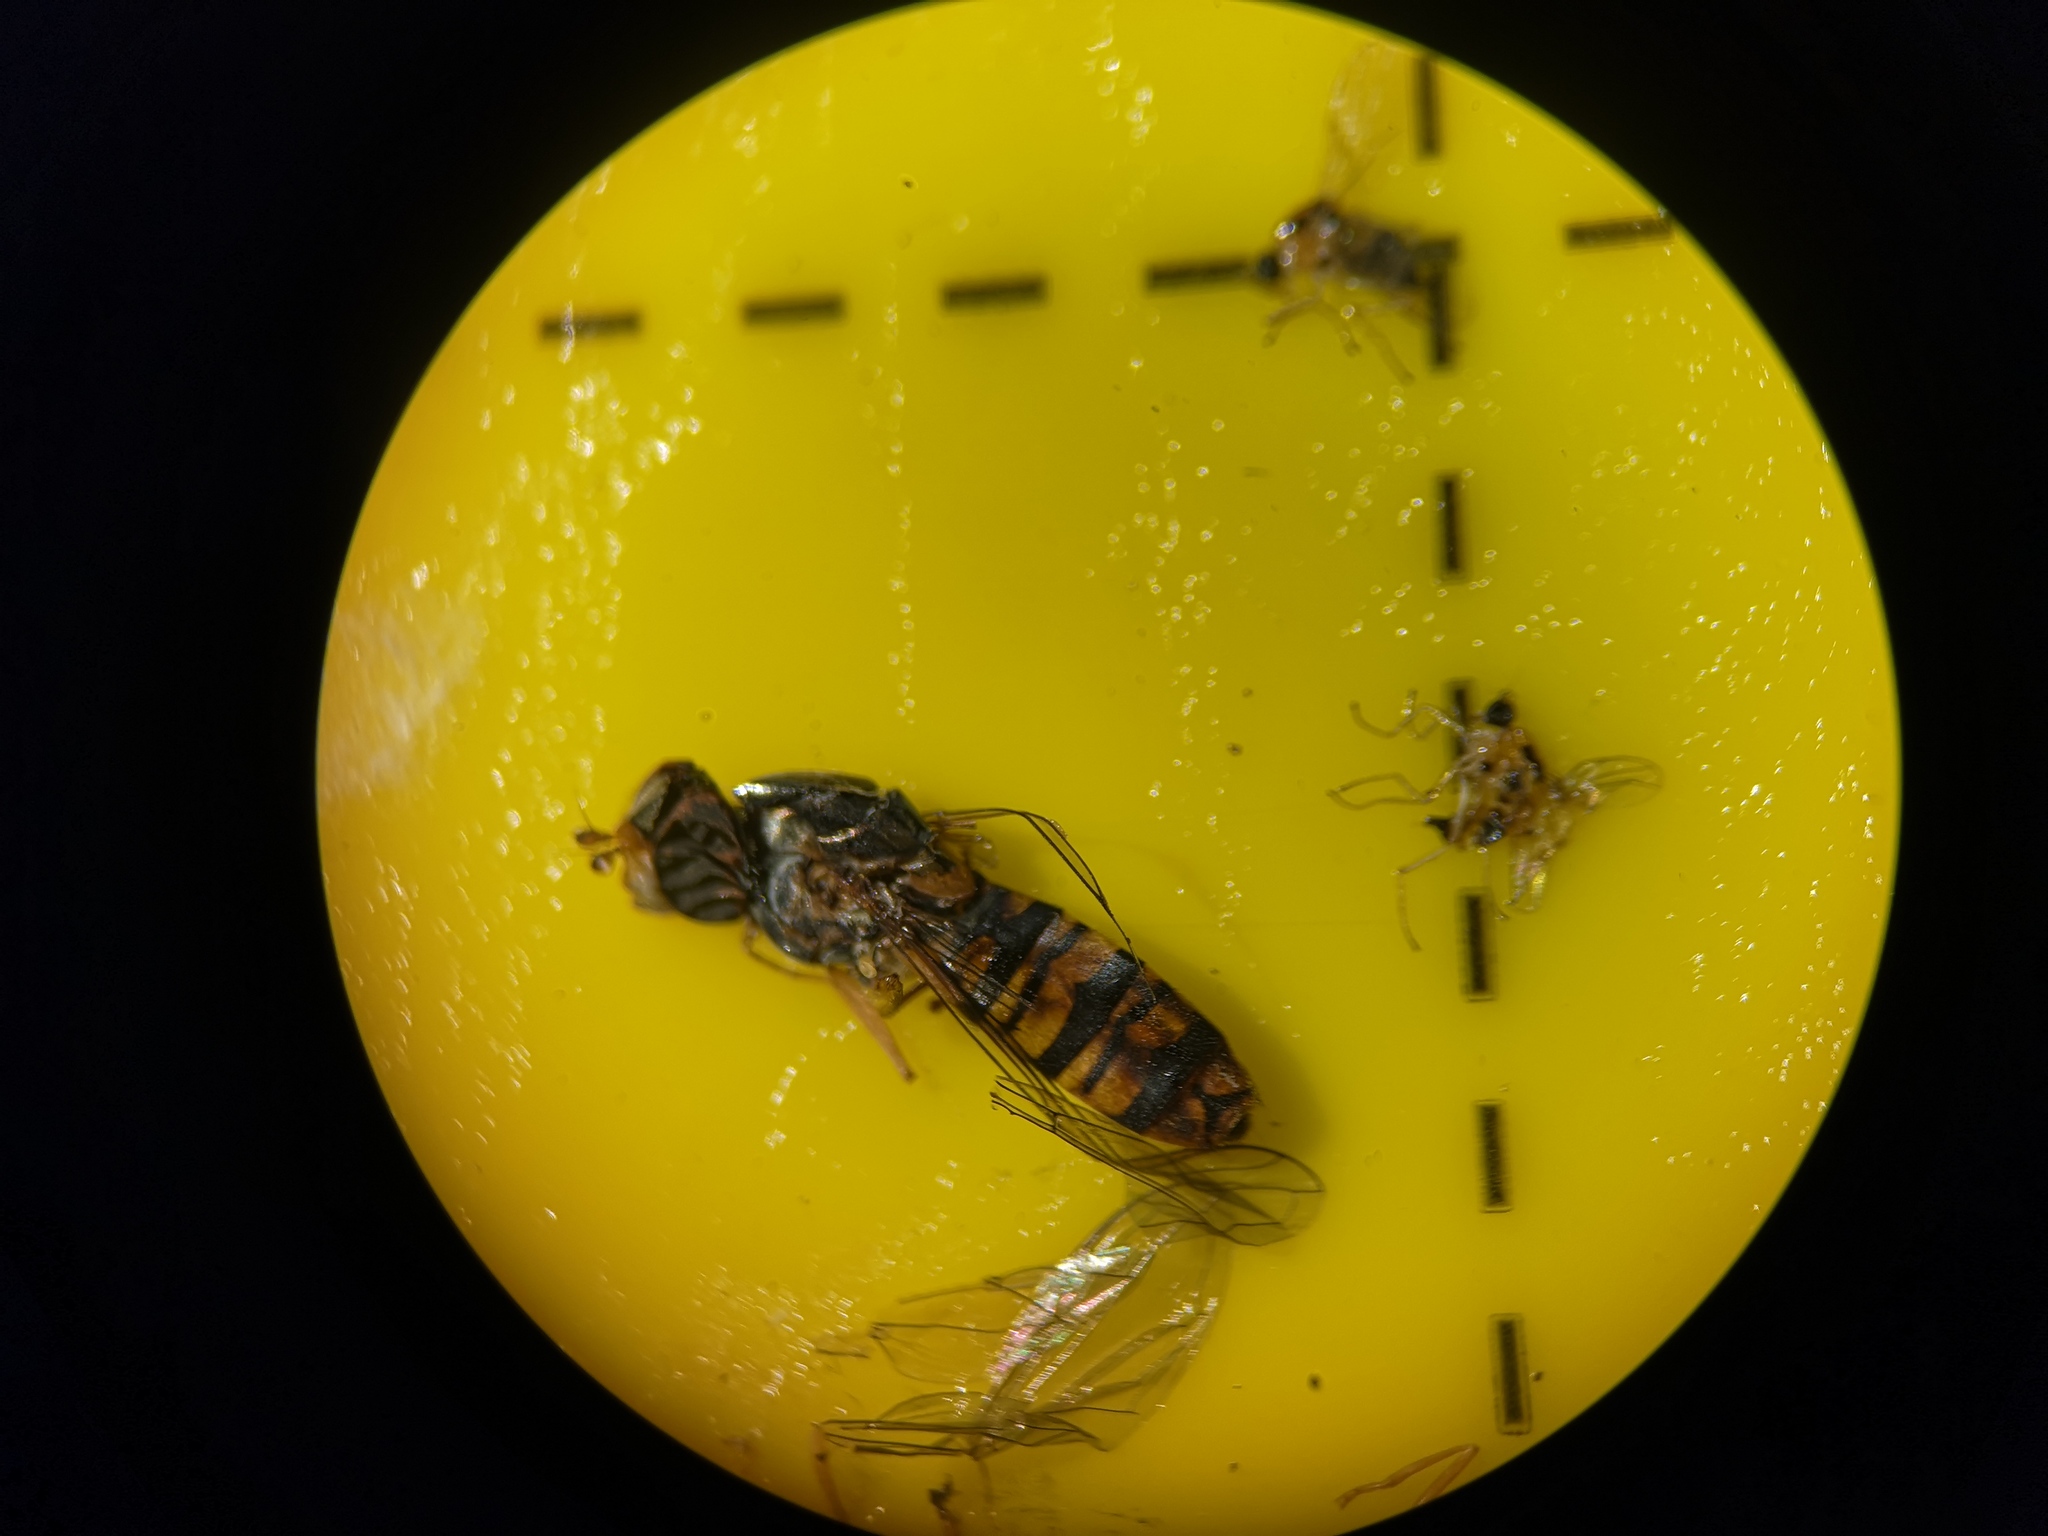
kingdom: Animalia
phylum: Arthropoda
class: Insecta
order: Diptera
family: Syrphidae
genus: Episyrphus
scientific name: Episyrphus balteatus
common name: Marmalade hoverfly
